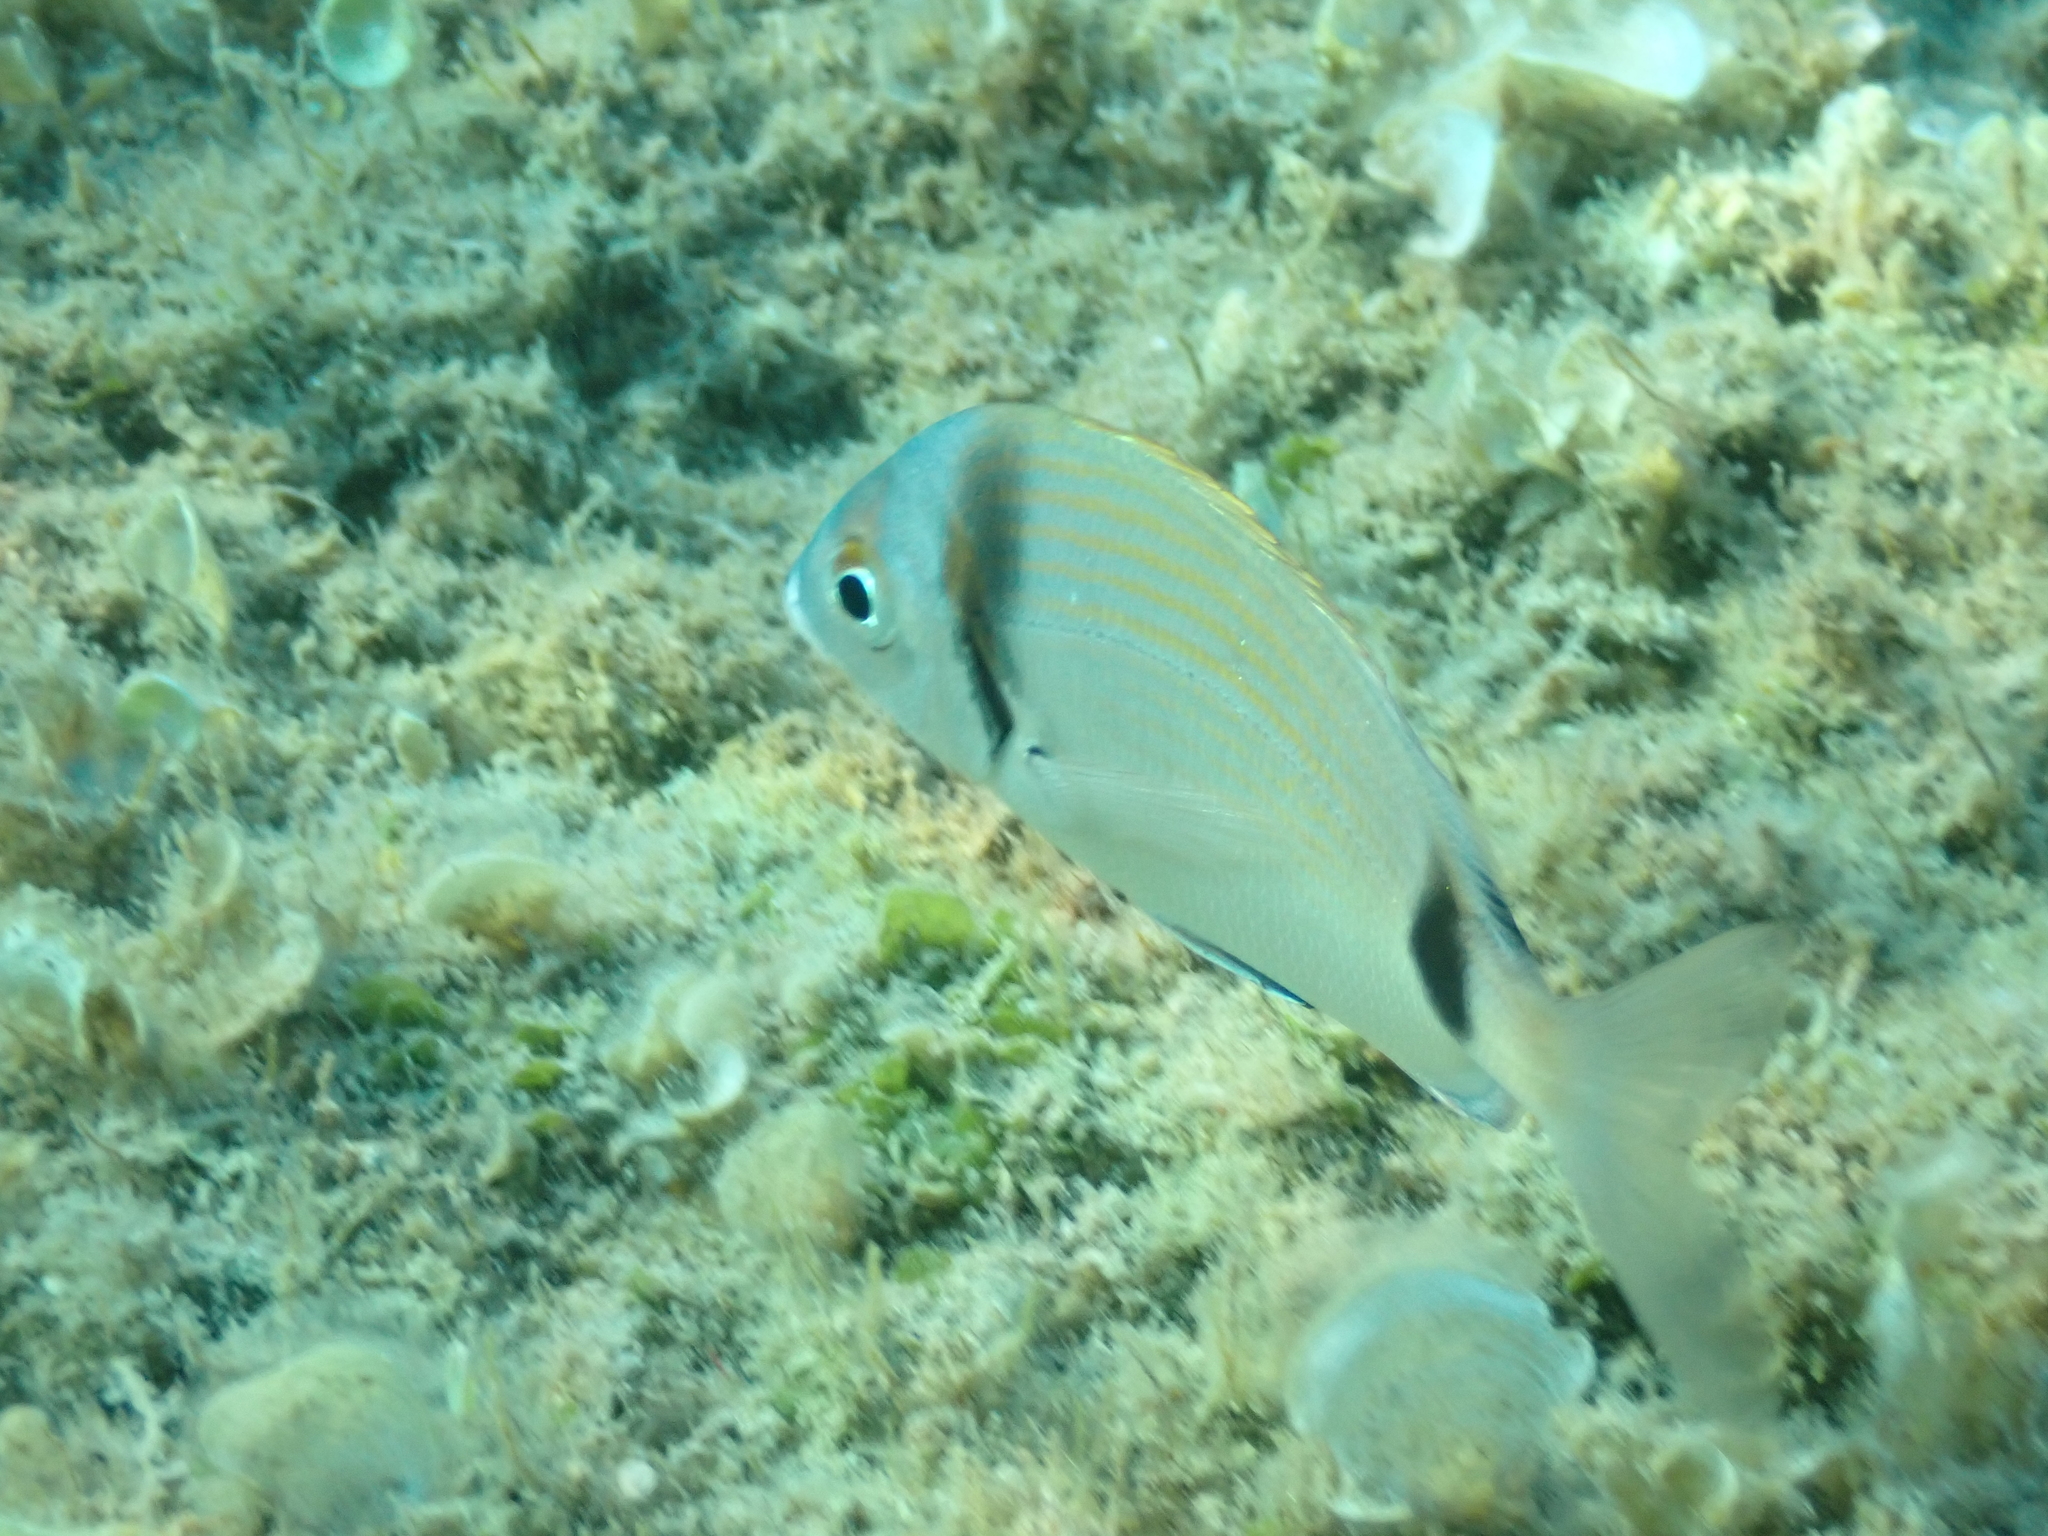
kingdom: Animalia
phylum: Chordata
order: Perciformes
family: Sparidae
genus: Diplodus
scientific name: Diplodus vulgaris
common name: Common two-banded seabream
